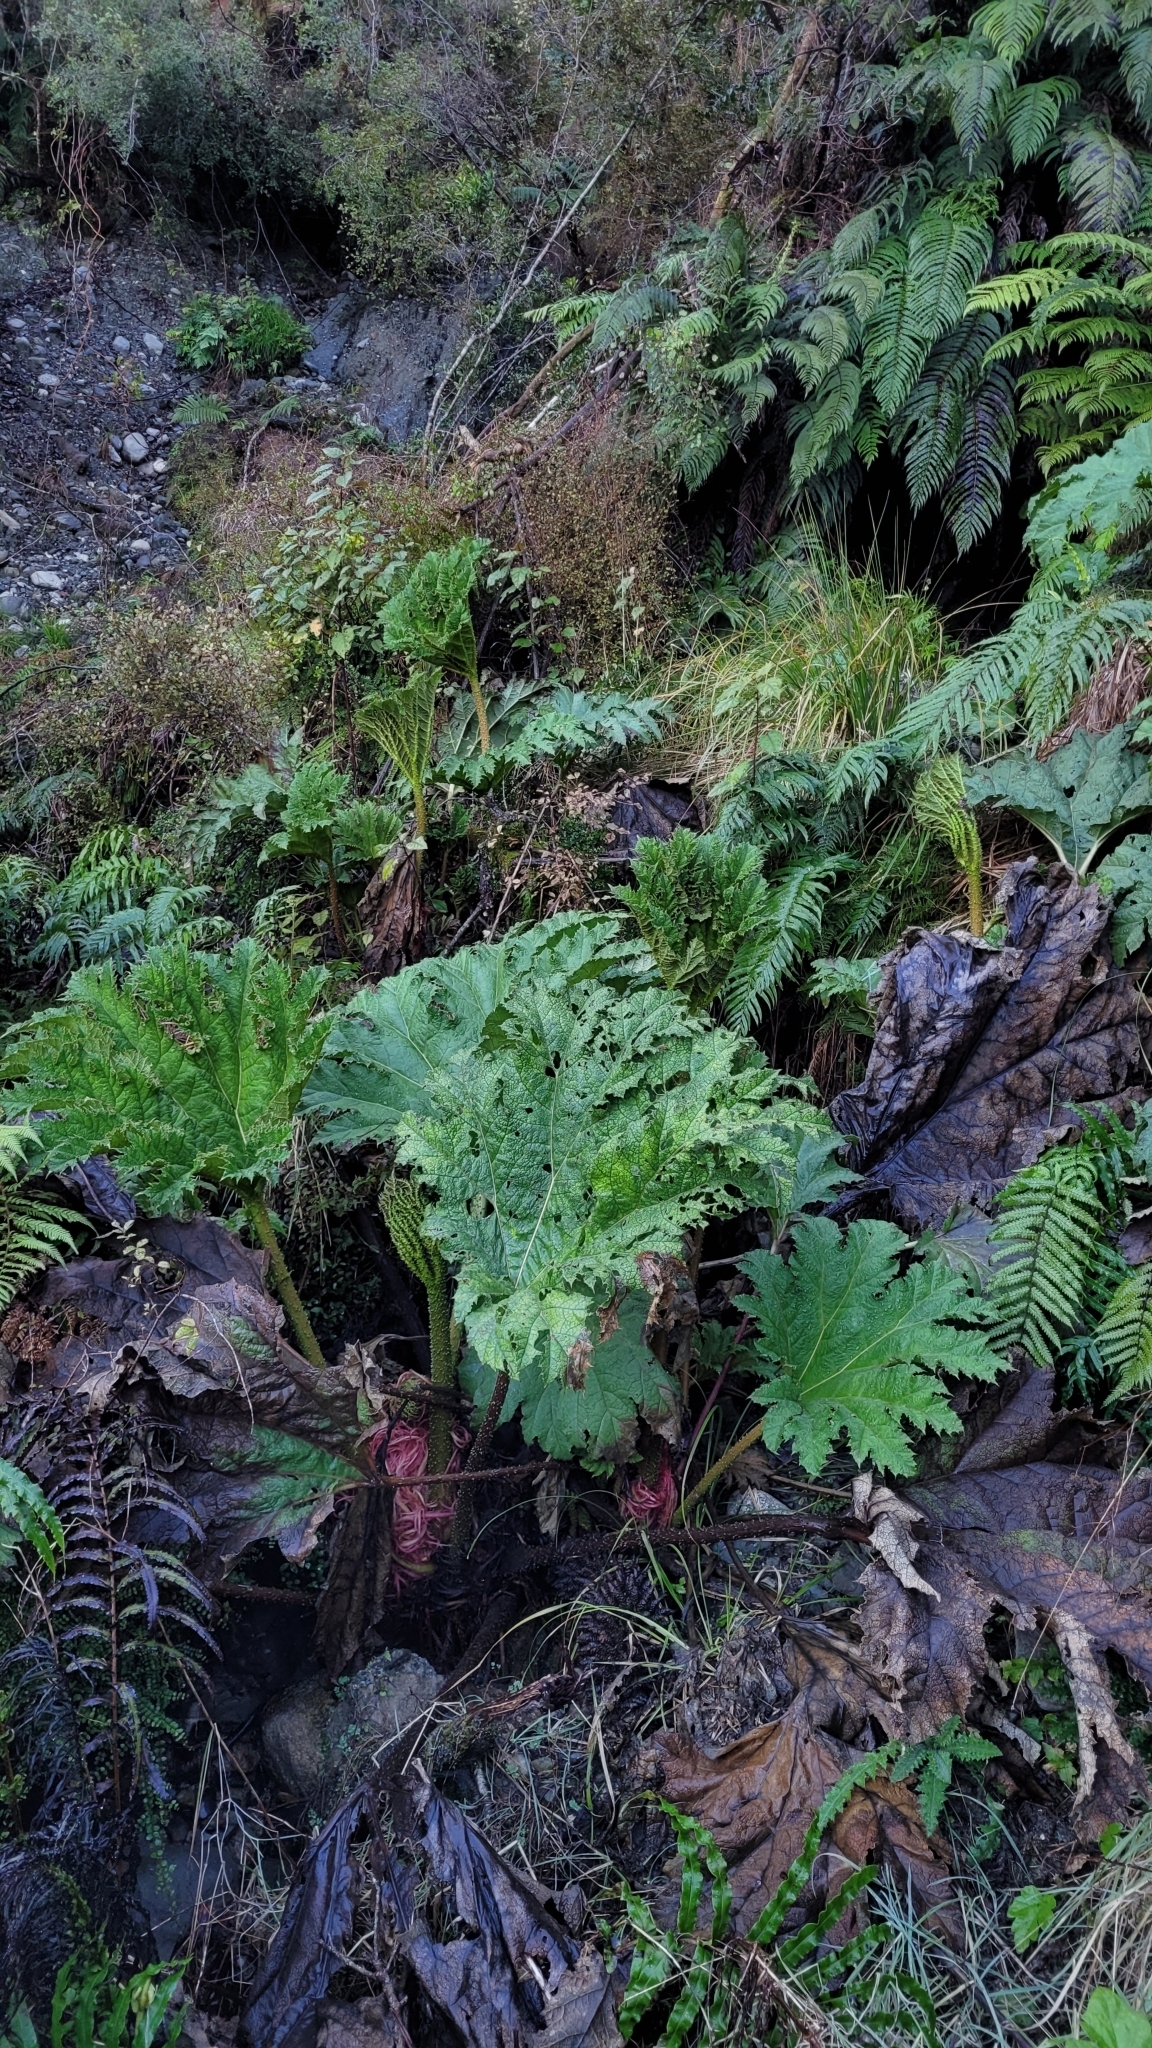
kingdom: Plantae
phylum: Tracheophyta
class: Magnoliopsida
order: Gunnerales
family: Gunneraceae
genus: Gunnera
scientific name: Gunnera tinctoria
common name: Giant-rhubarb
